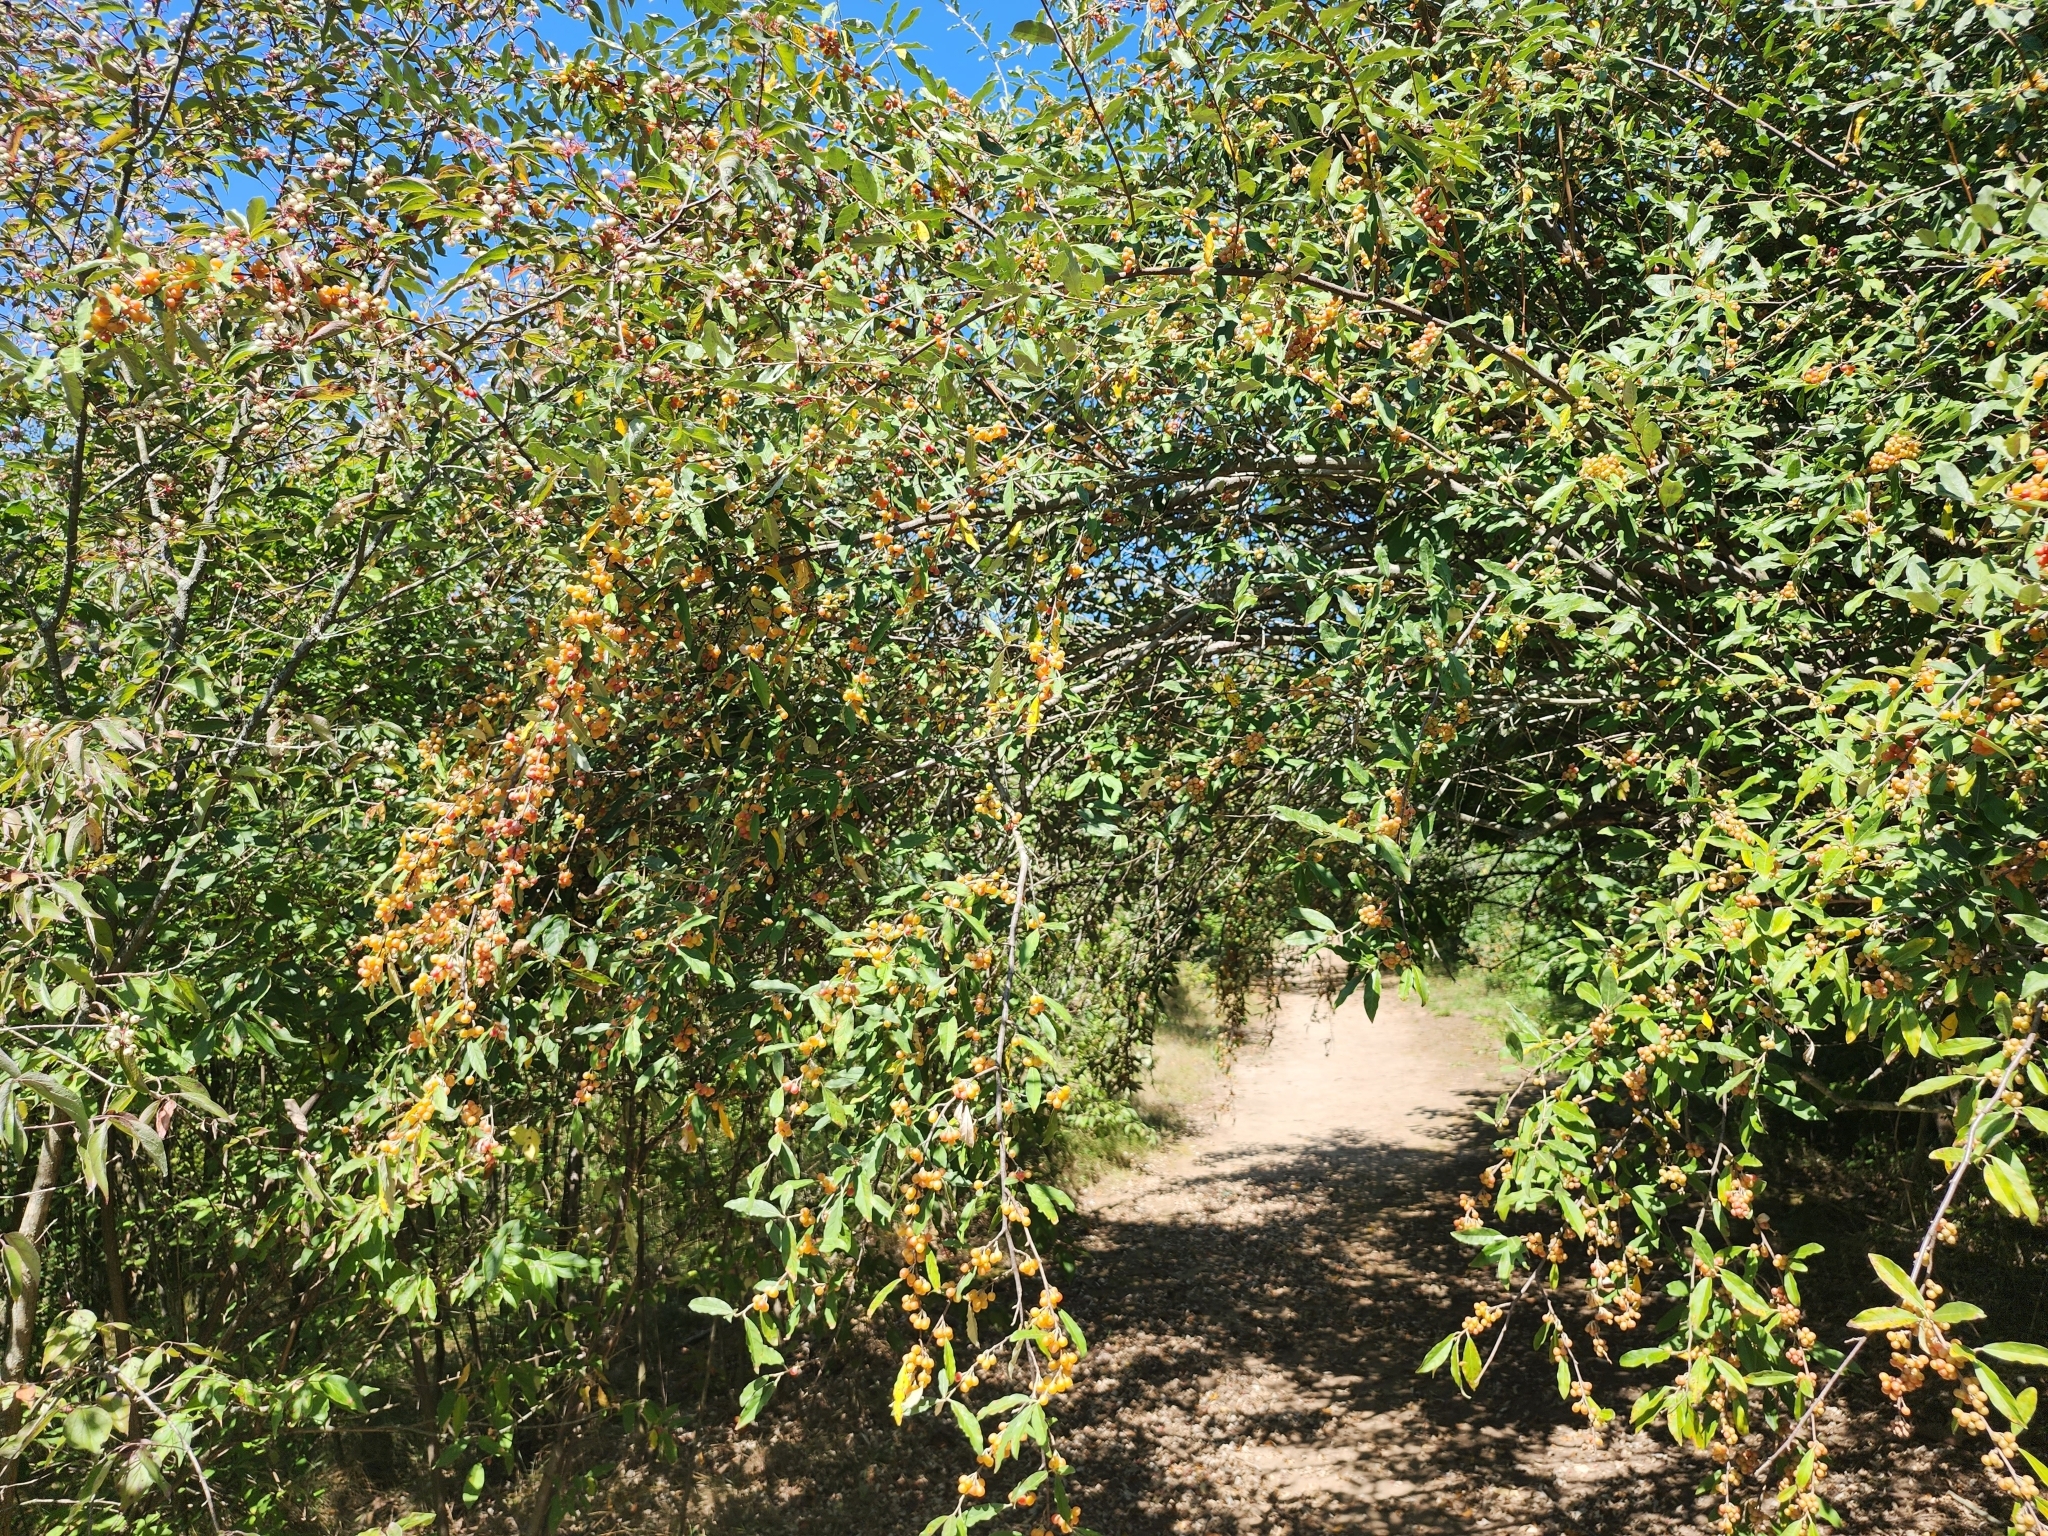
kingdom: Plantae
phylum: Tracheophyta
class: Magnoliopsida
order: Rosales
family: Elaeagnaceae
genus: Elaeagnus
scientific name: Elaeagnus umbellata
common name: Autumn olive
